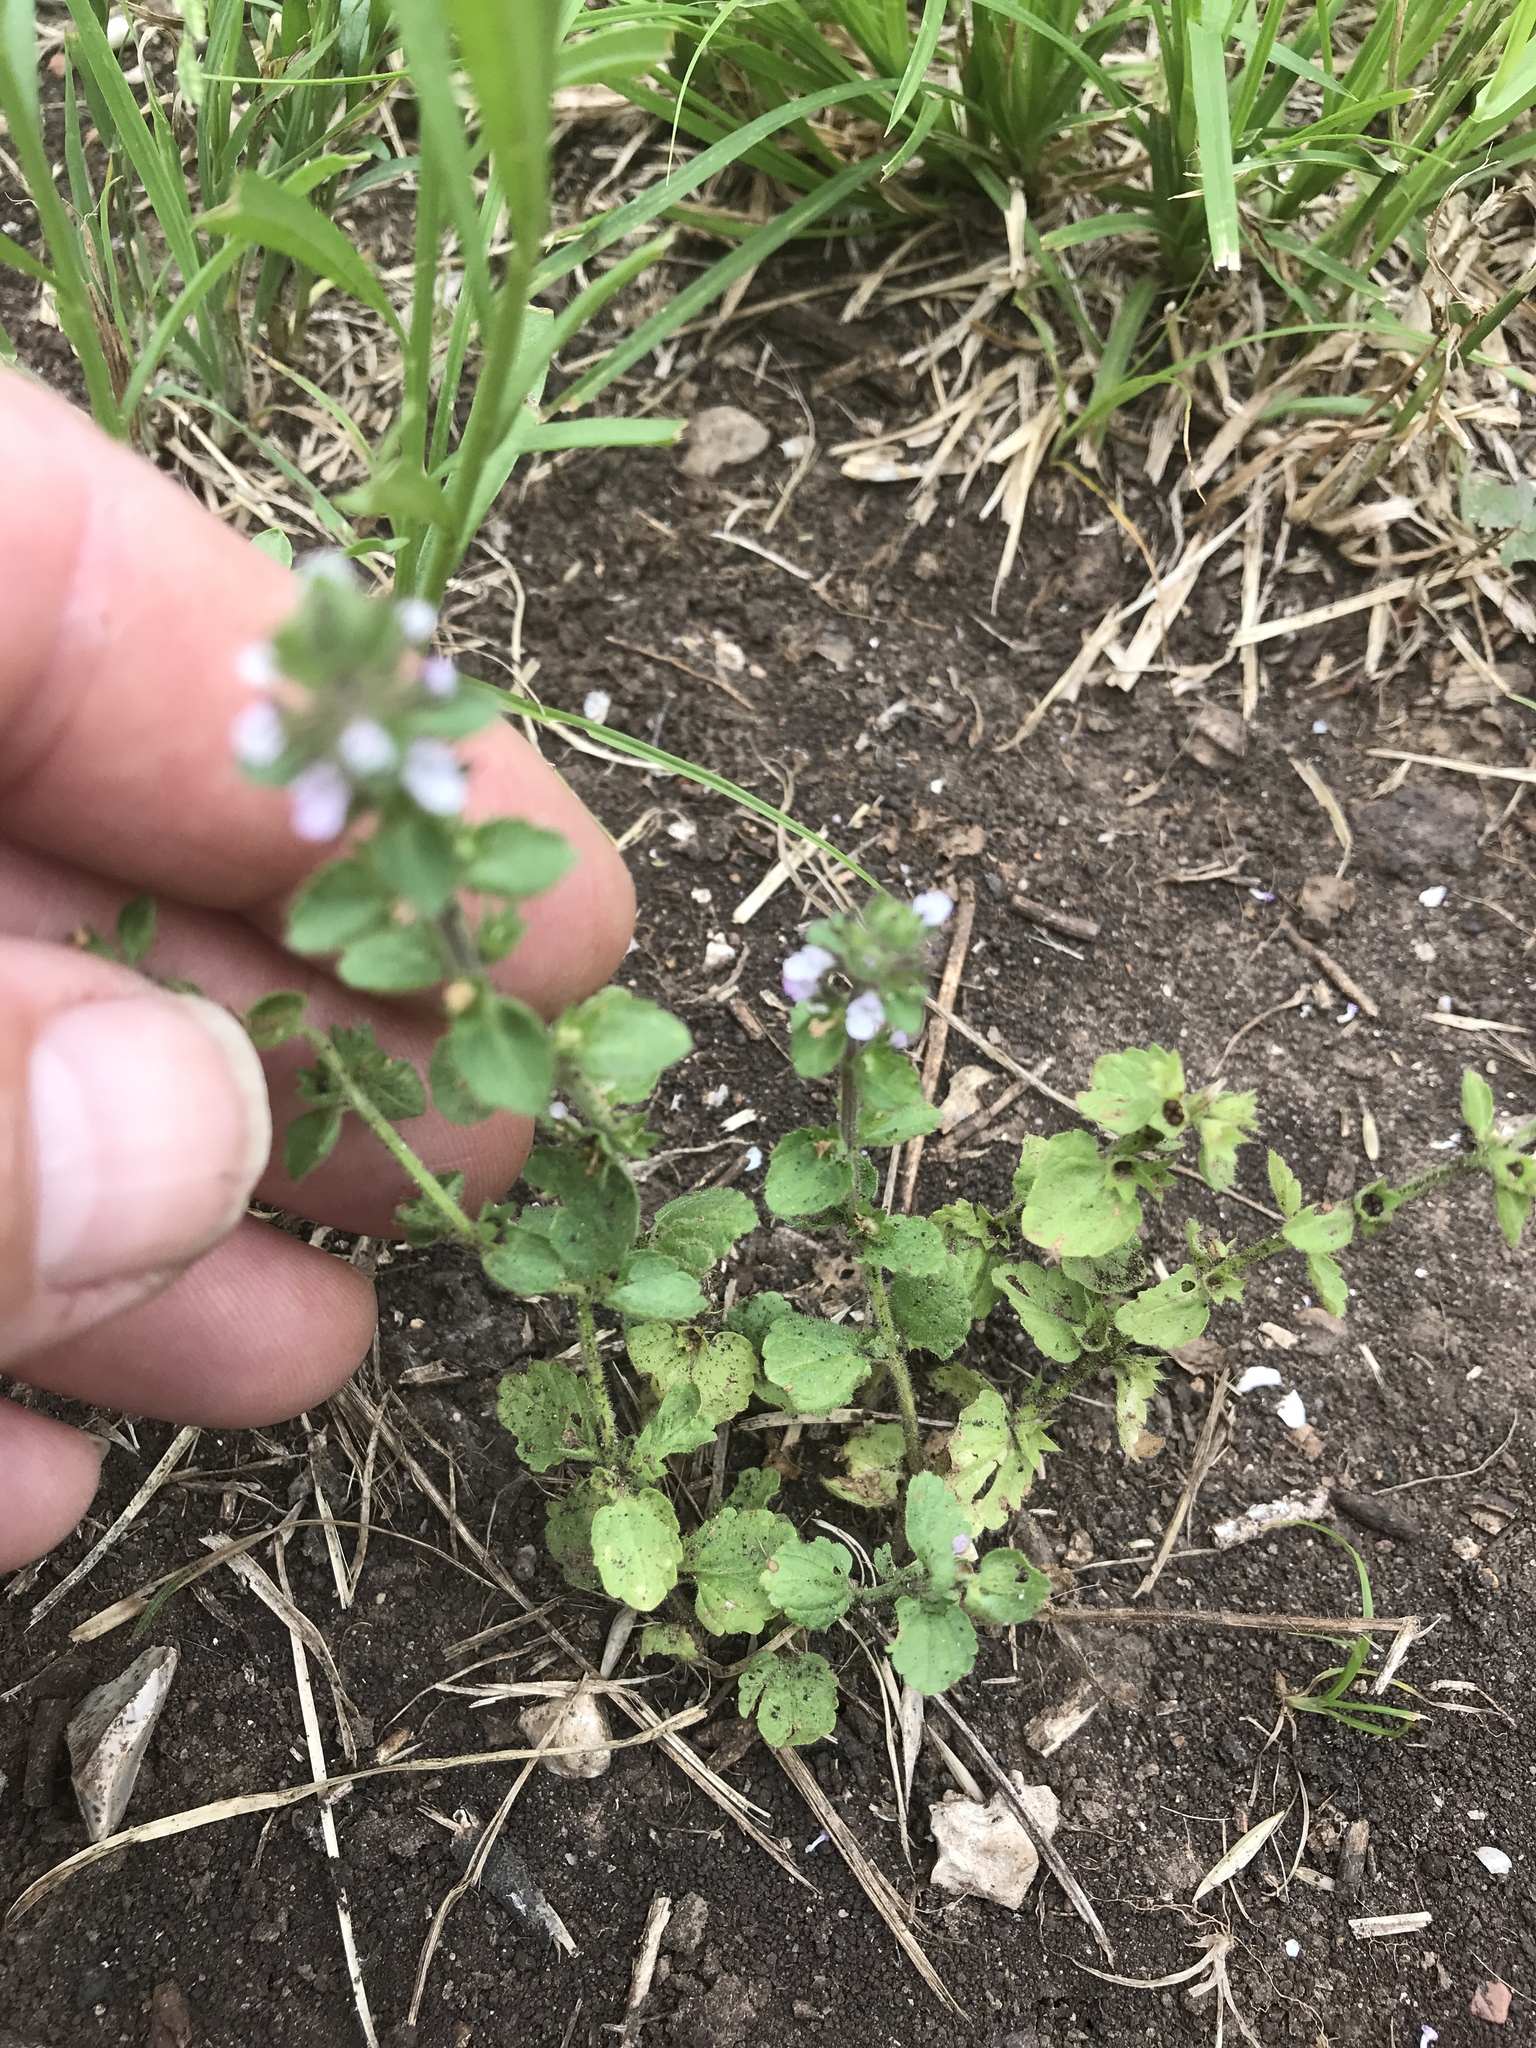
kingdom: Plantae
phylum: Tracheophyta
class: Magnoliopsida
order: Lamiales
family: Lamiaceae
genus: Stachys
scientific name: Stachys
